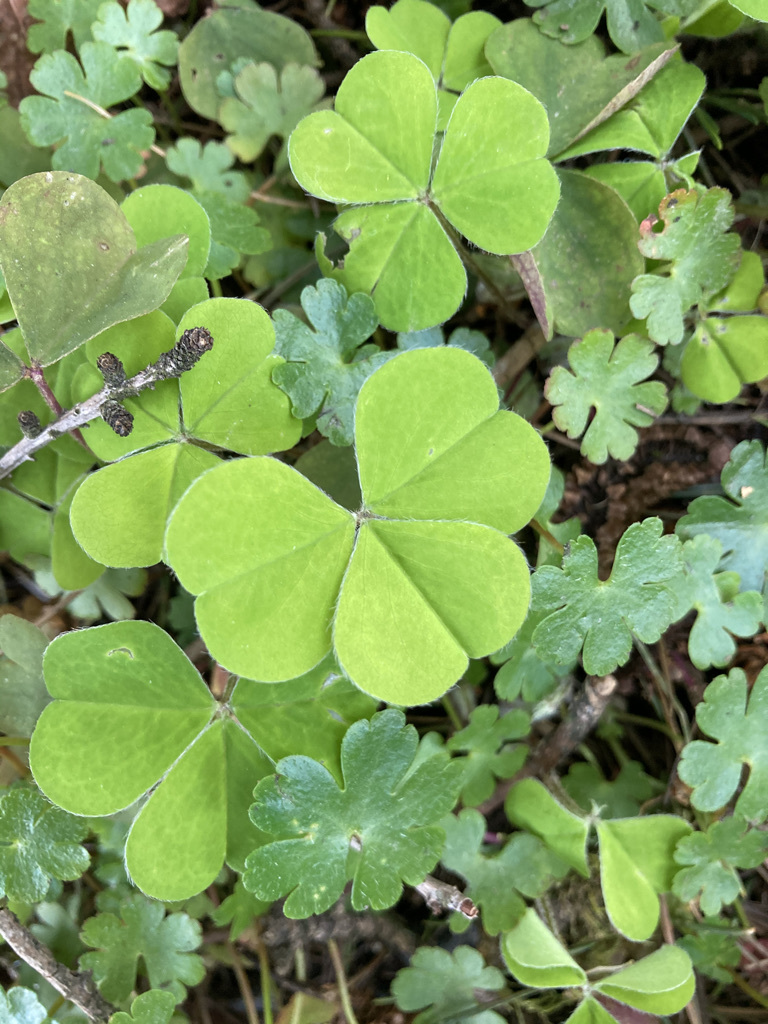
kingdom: Plantae
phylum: Tracheophyta
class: Magnoliopsida
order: Oxalidales
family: Oxalidaceae
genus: Oxalis
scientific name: Oxalis oregana
